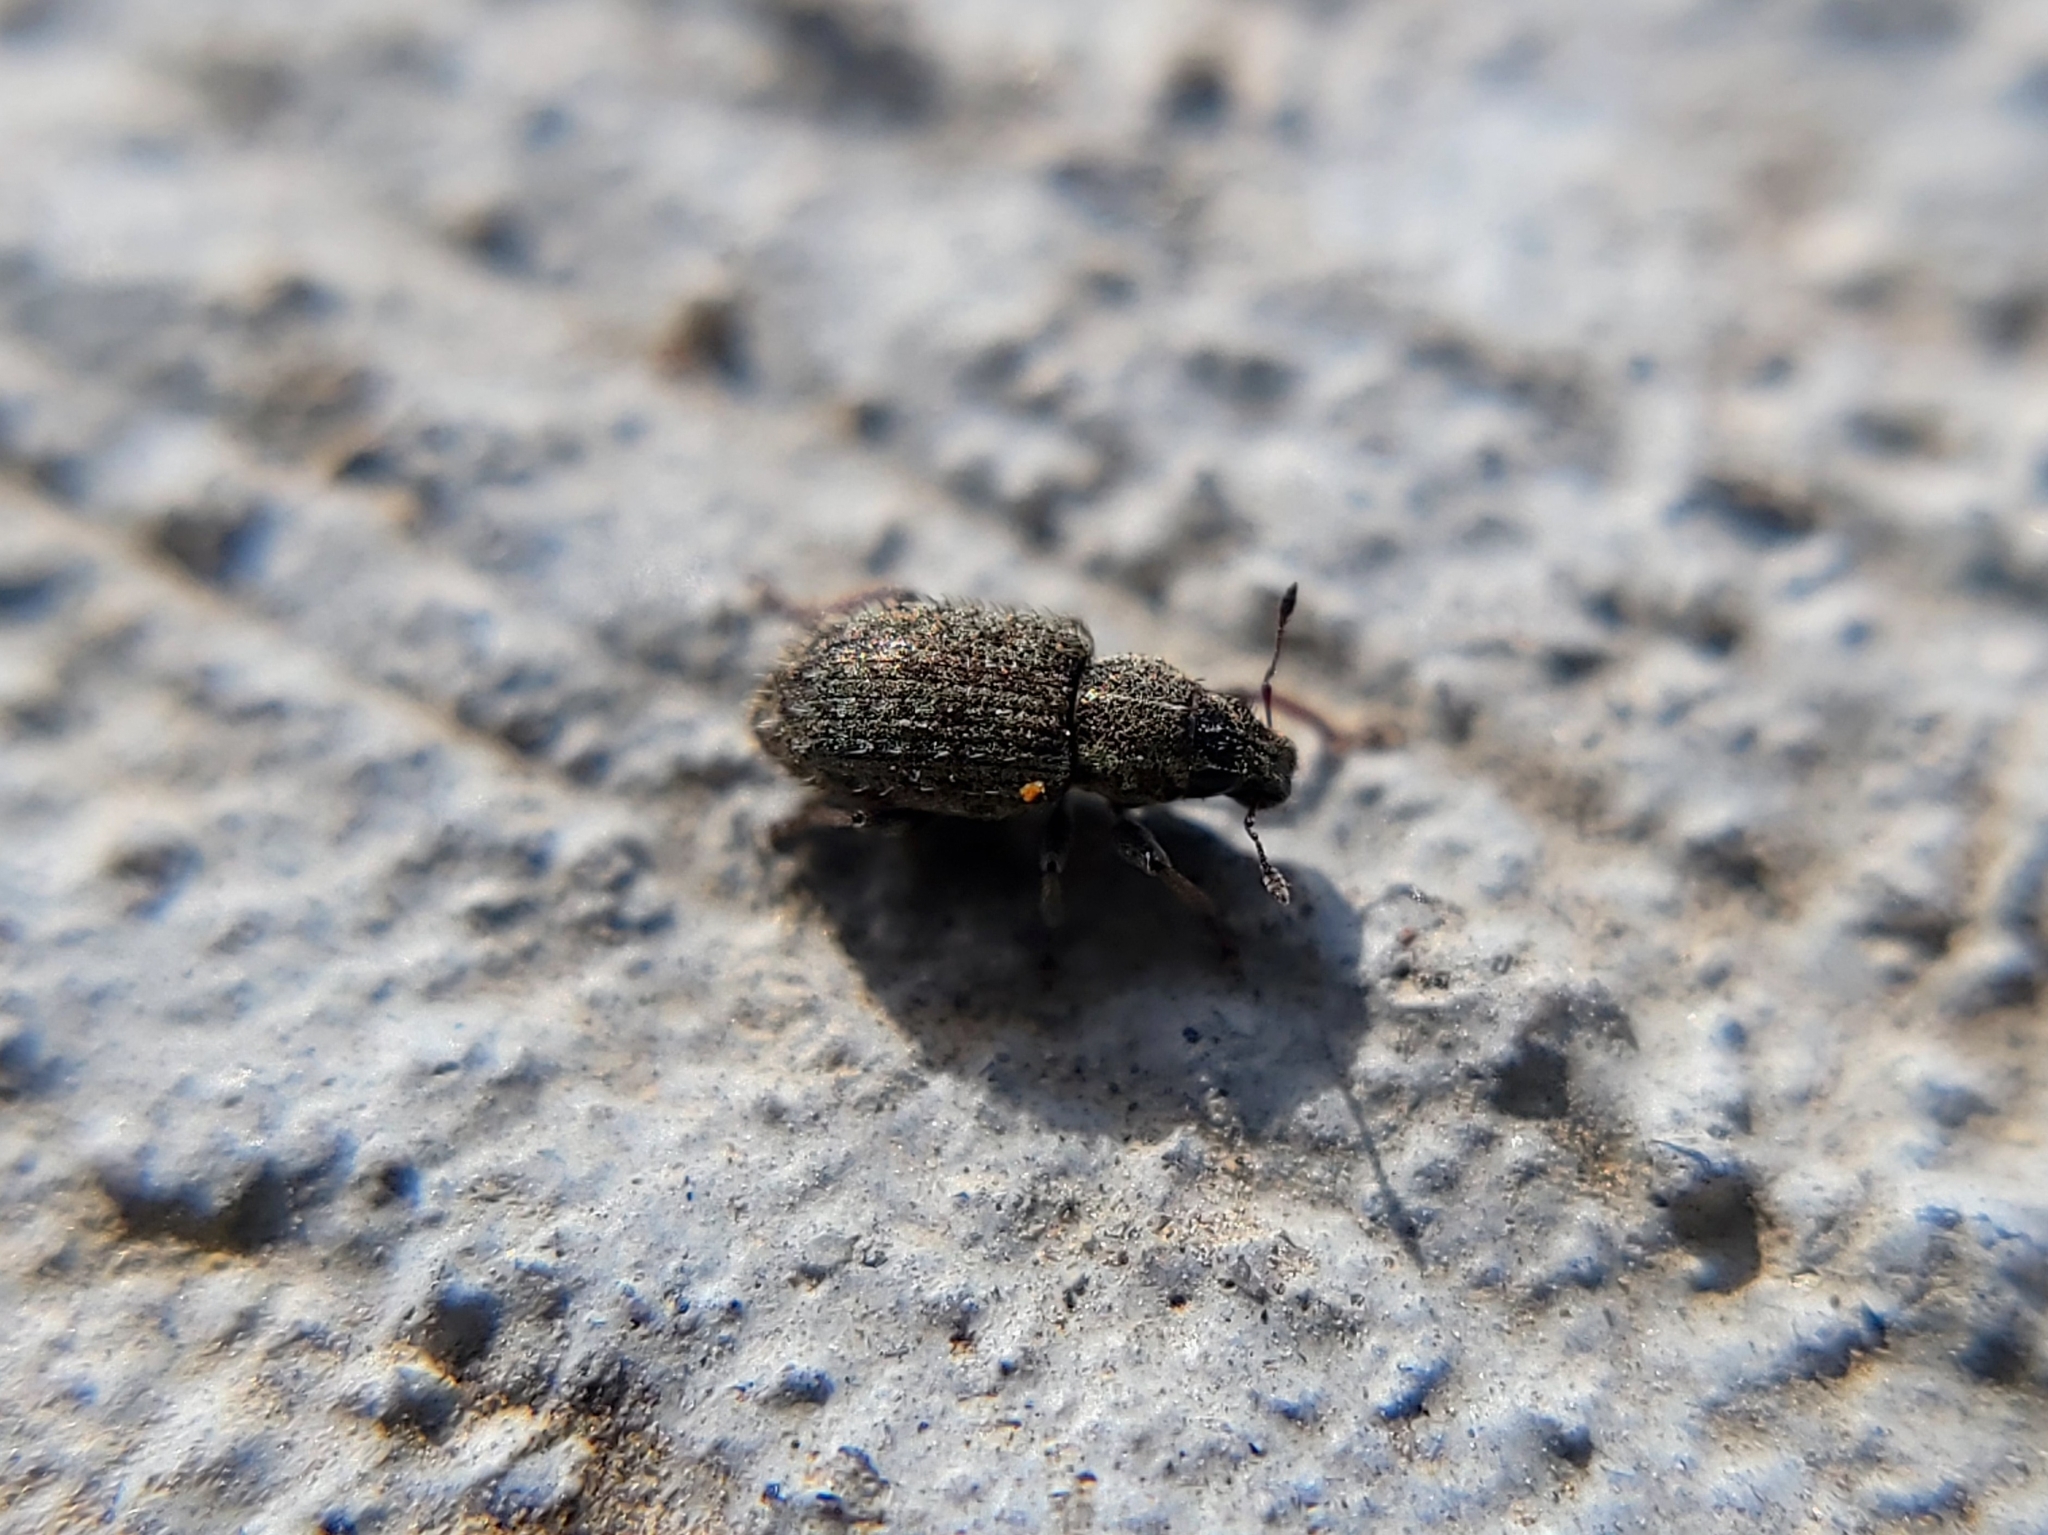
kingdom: Animalia
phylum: Arthropoda
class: Insecta
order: Coleoptera
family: Curculionidae
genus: Sitona
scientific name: Sitona hispidulus
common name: Clover weevil
